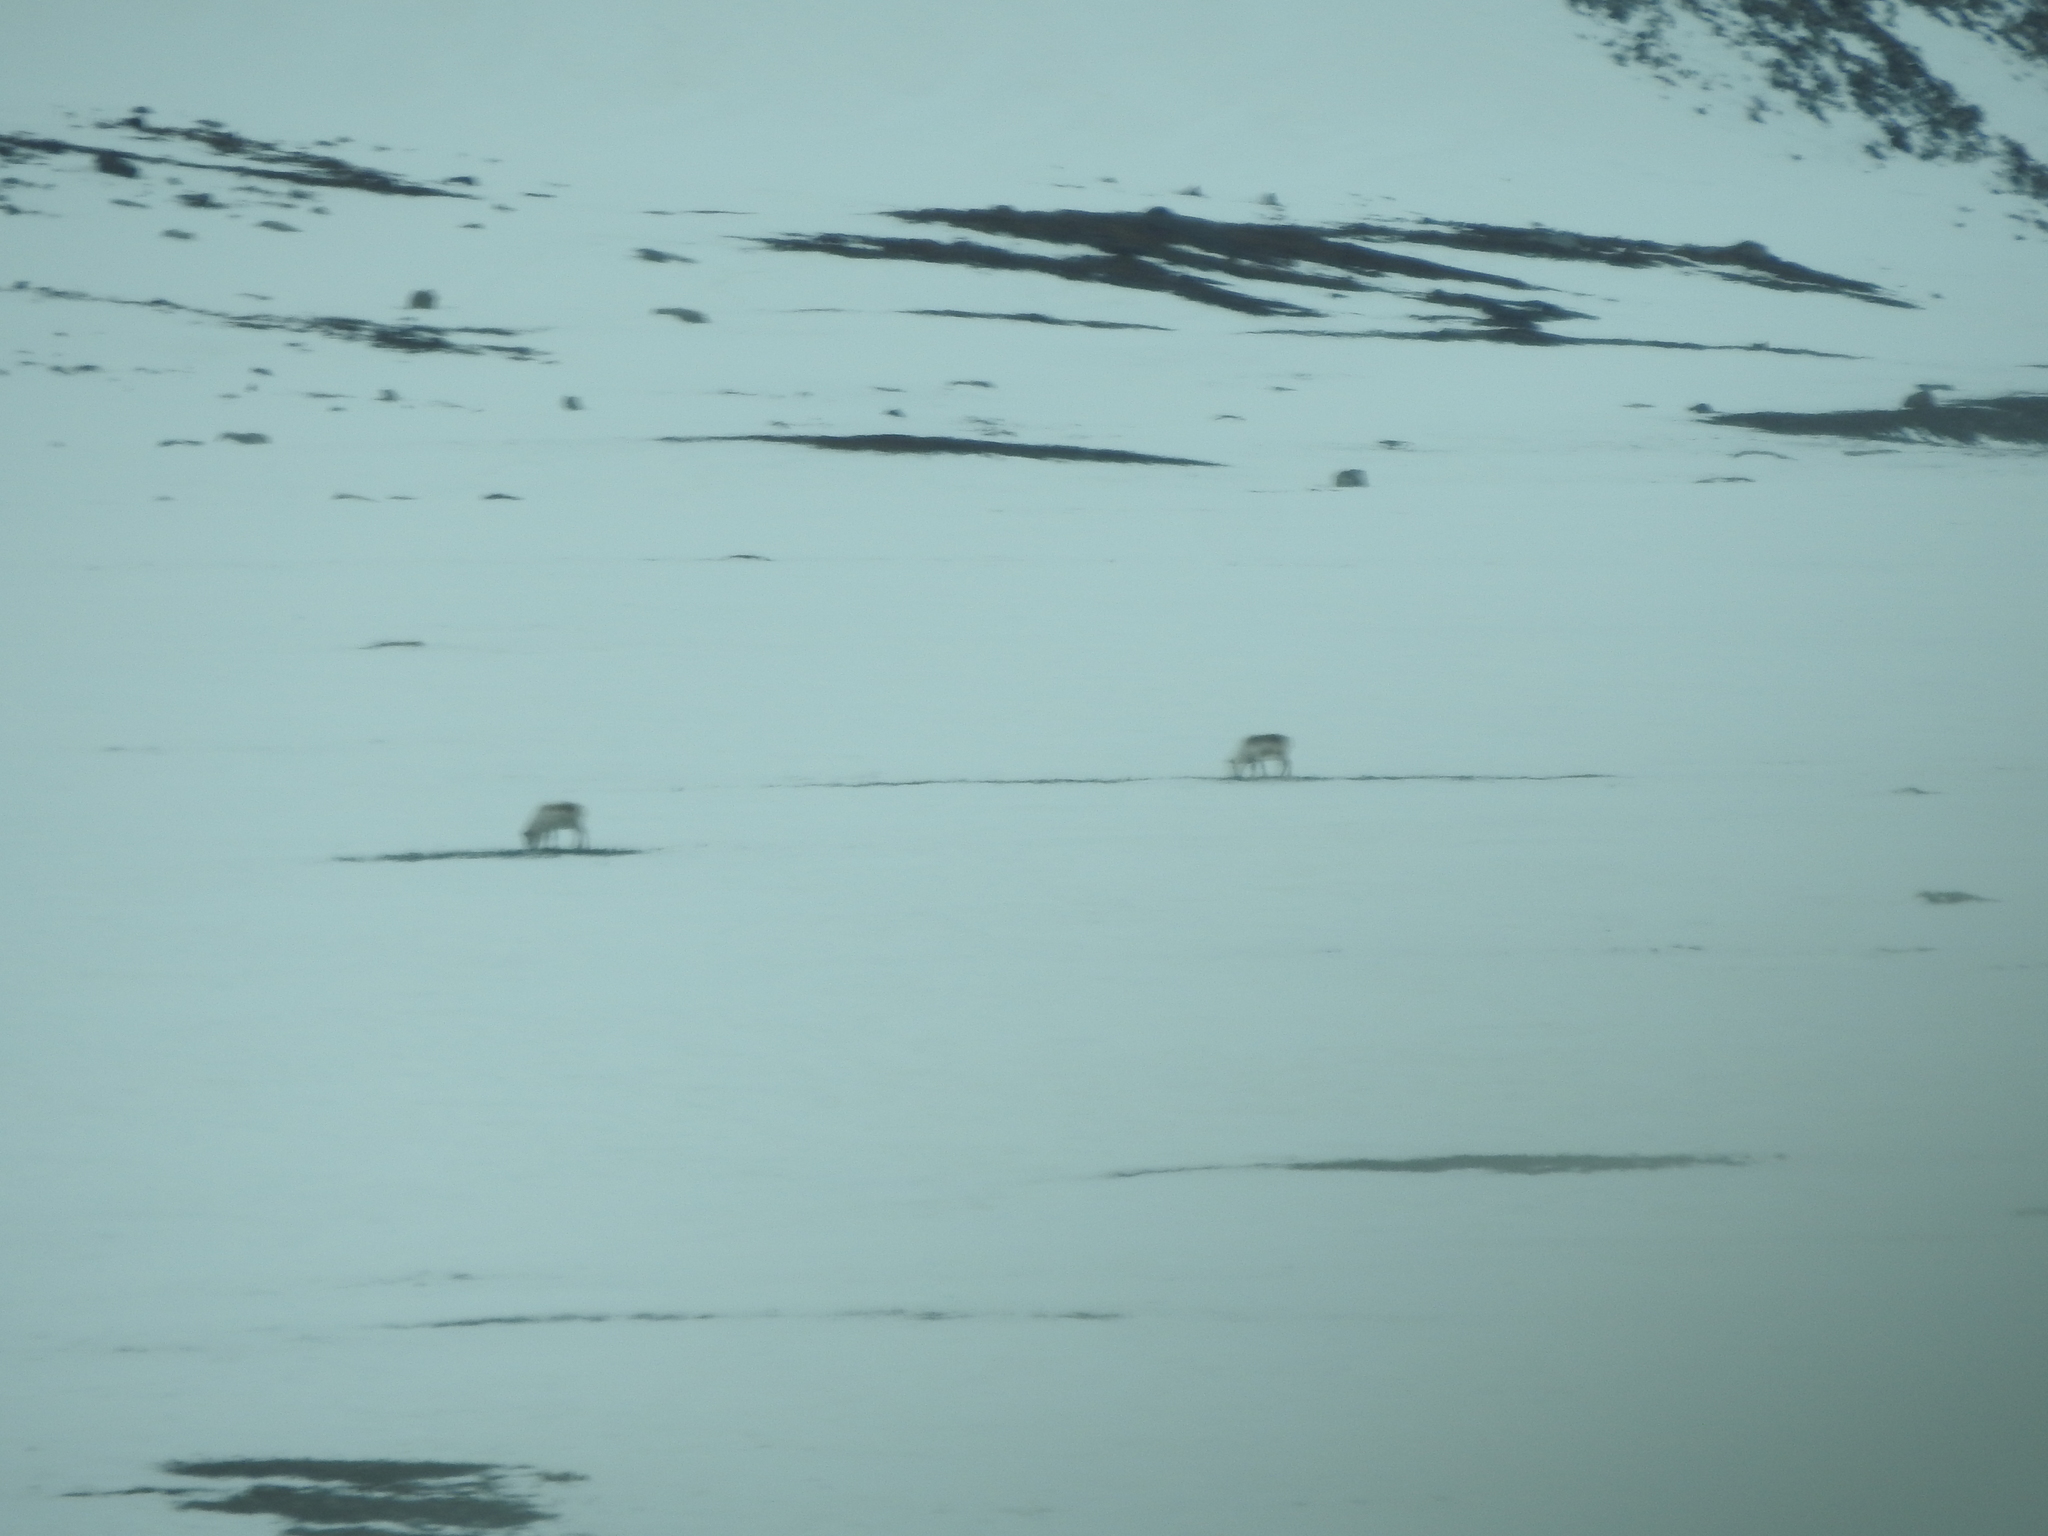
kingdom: Animalia
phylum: Chordata
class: Mammalia
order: Artiodactyla
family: Cervidae
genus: Rangifer
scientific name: Rangifer tarandus
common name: Reindeer
